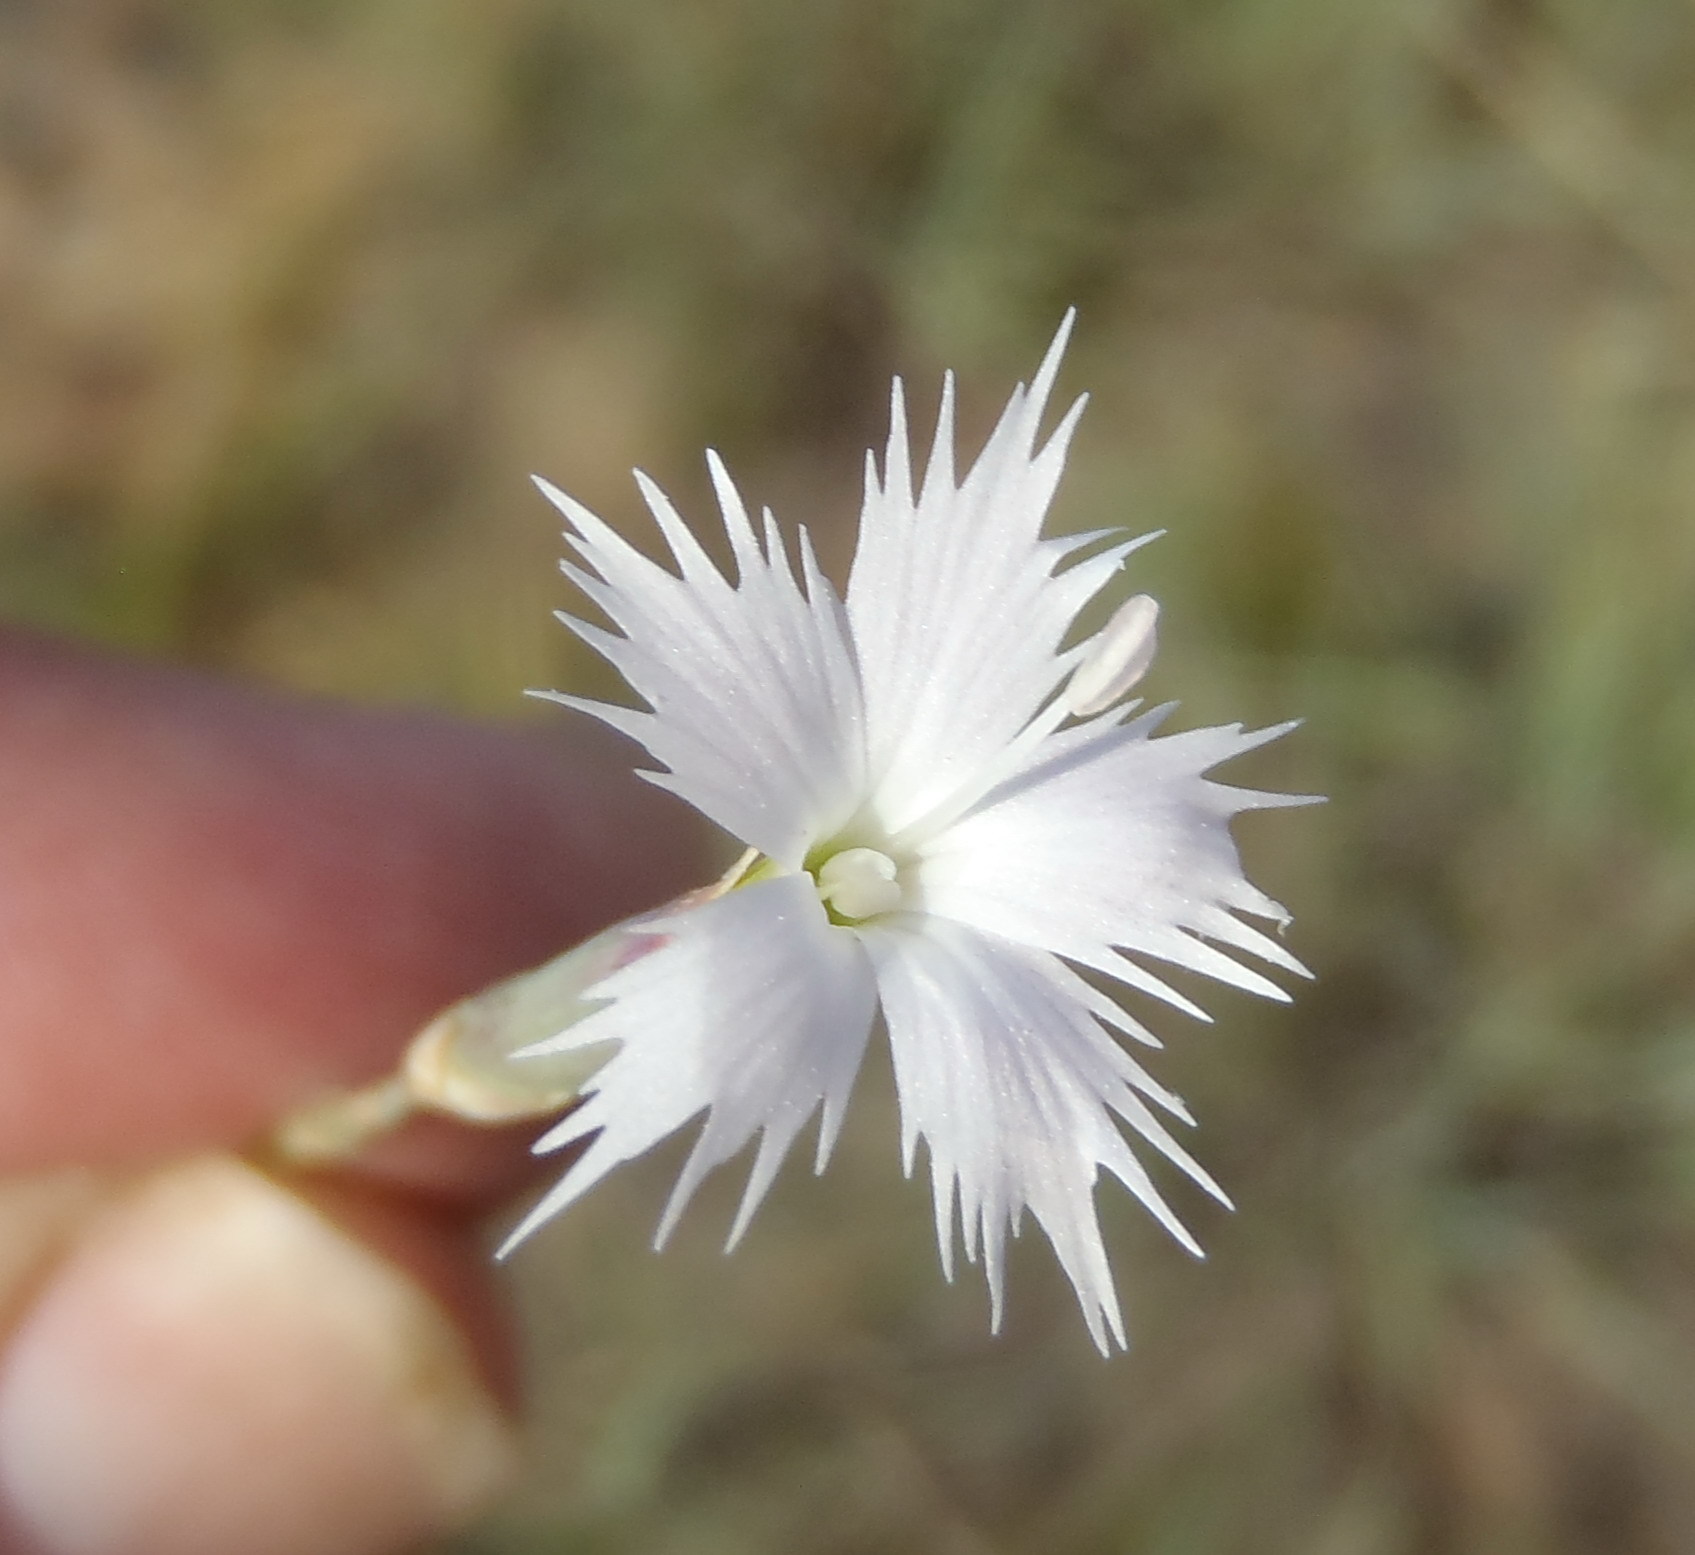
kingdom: Plantae
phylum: Tracheophyta
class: Magnoliopsida
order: Caryophyllales
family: Caryophyllaceae
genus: Dianthus
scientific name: Dianthus moviensis
